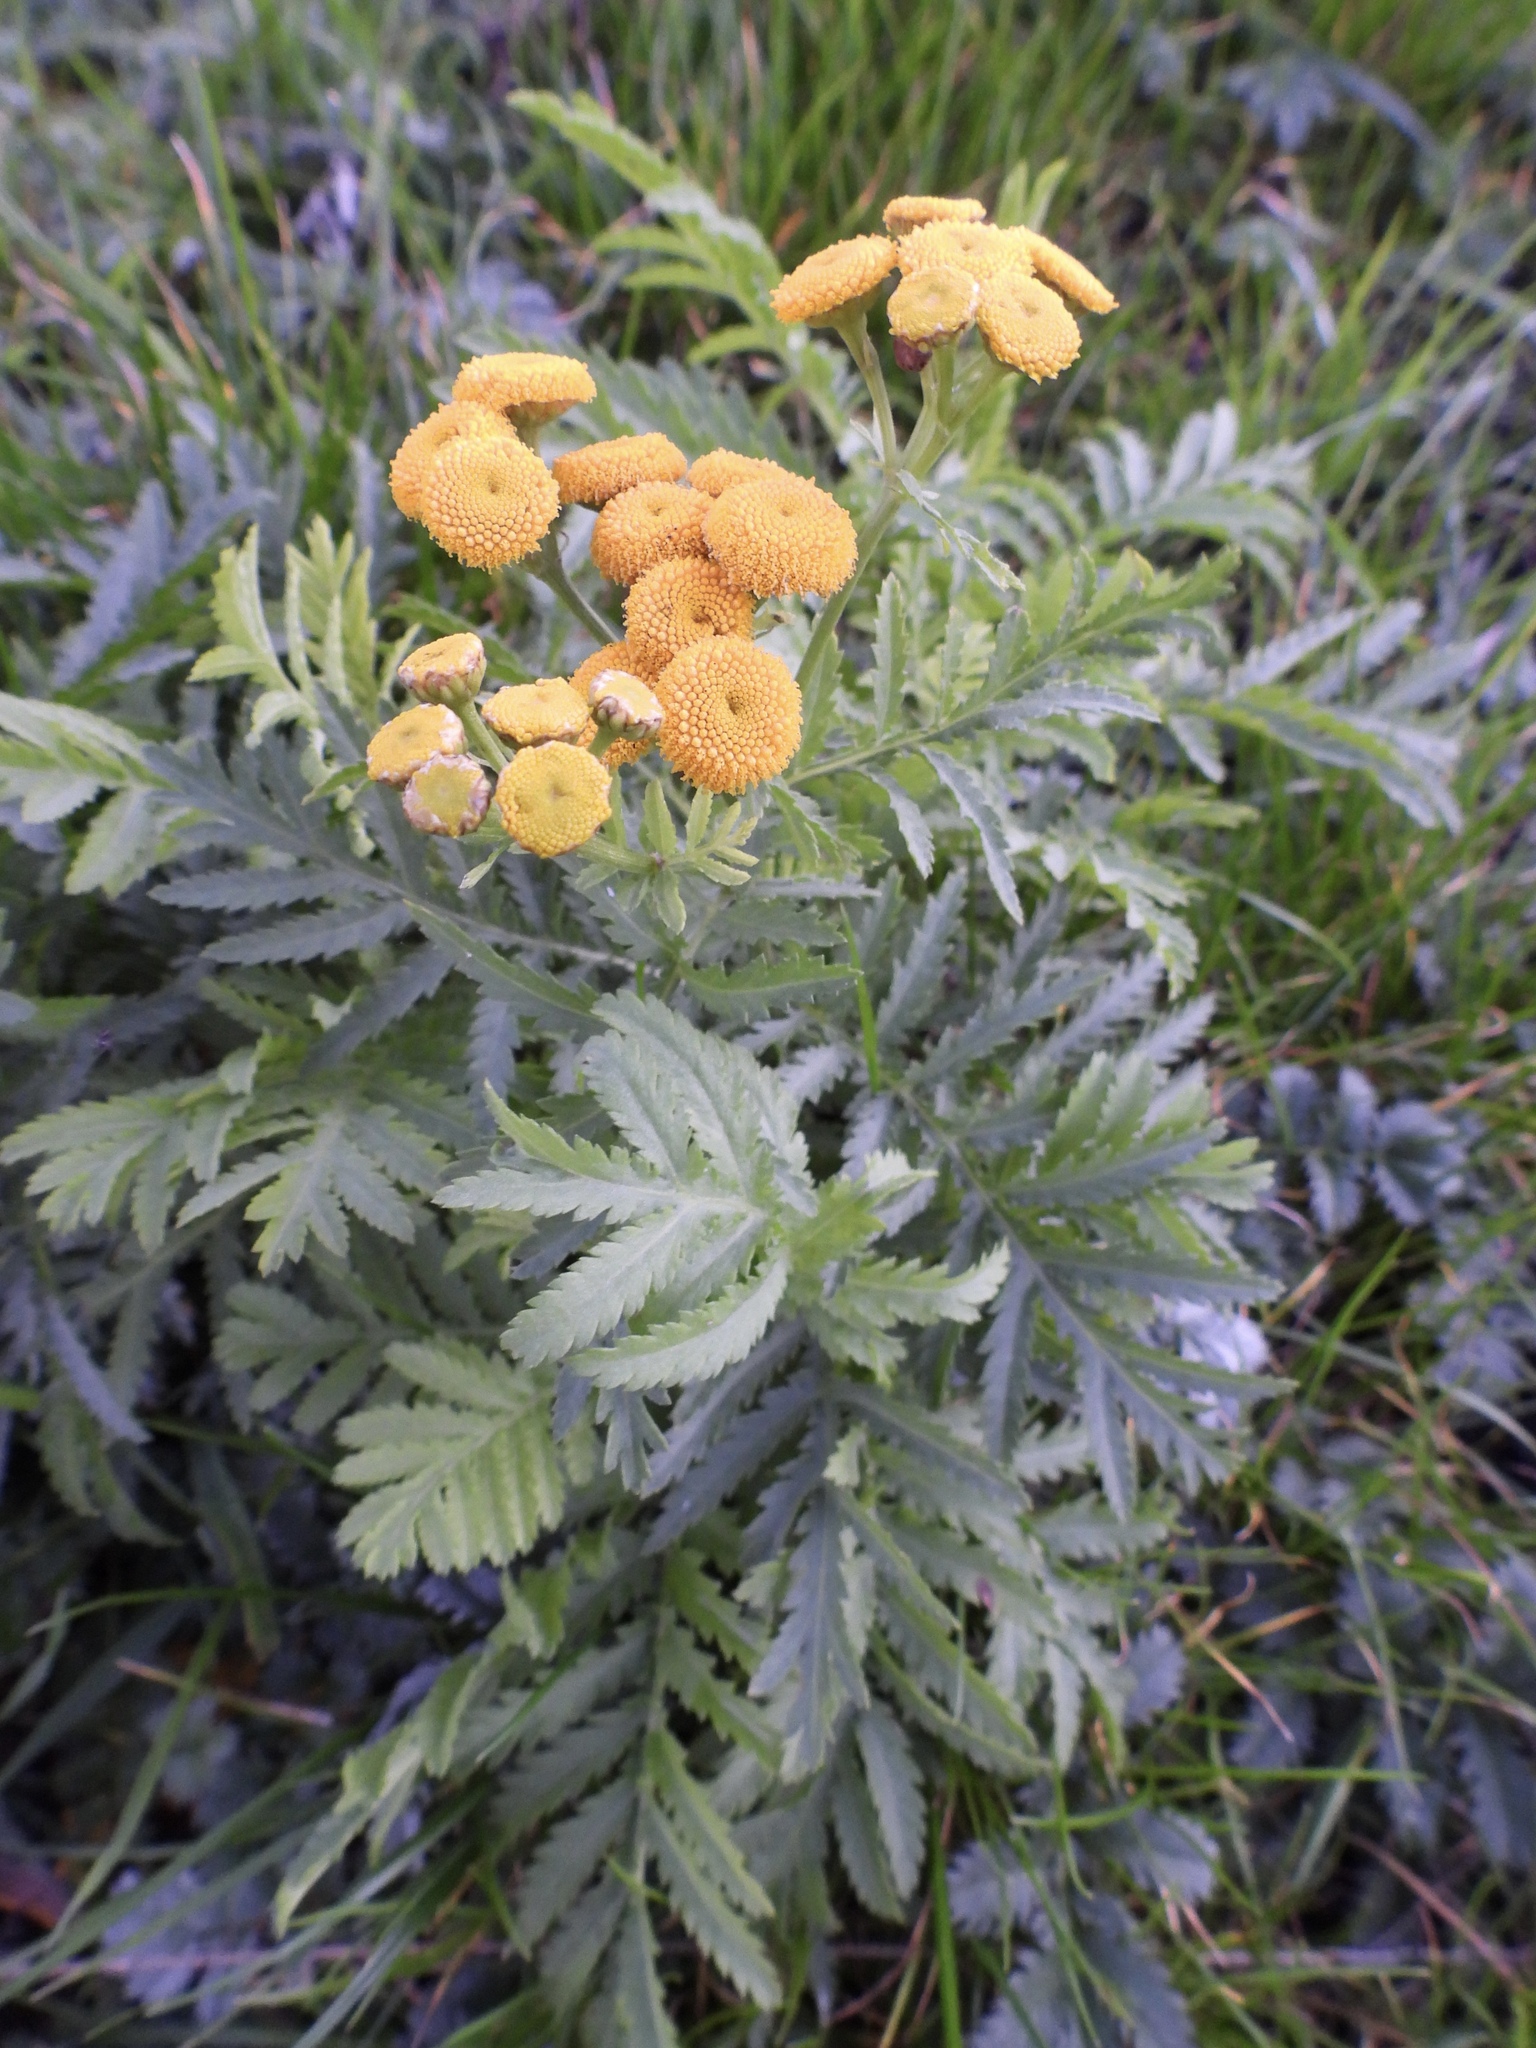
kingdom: Plantae
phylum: Tracheophyta
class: Magnoliopsida
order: Asterales
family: Asteraceae
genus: Tanacetum
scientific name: Tanacetum vulgare
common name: Common tansy
